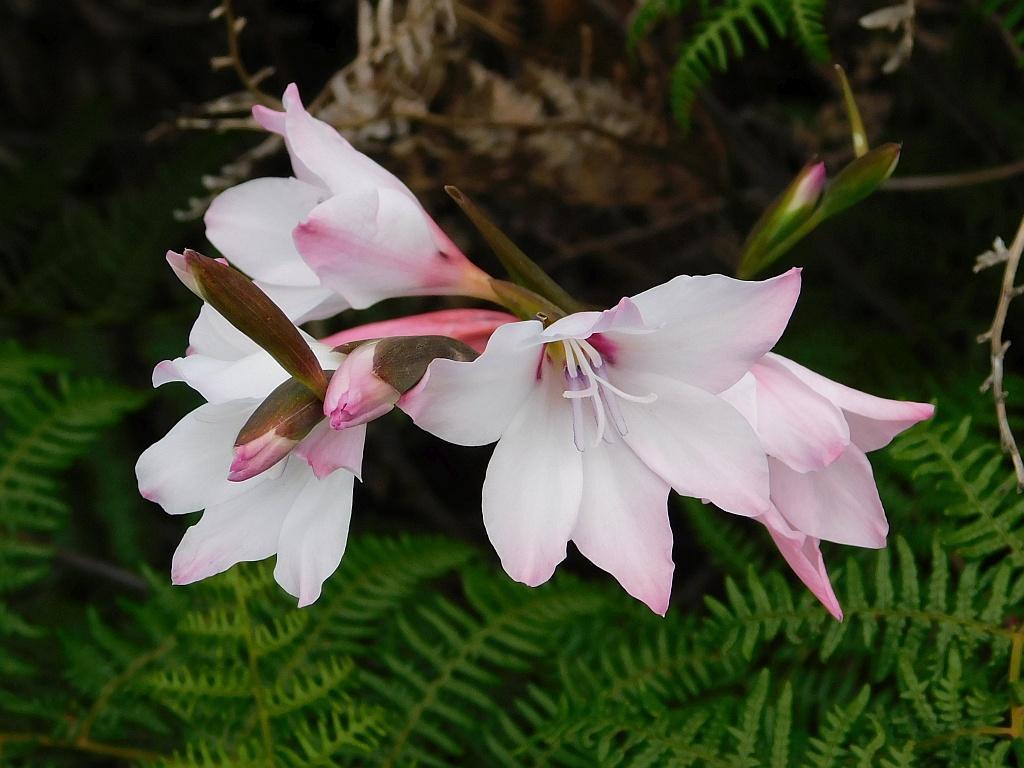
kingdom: Plantae
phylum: Tracheophyta
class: Liliopsida
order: Asparagales
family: Iridaceae
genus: Gladiolus
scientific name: Gladiolus carneus
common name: Painted-lady
